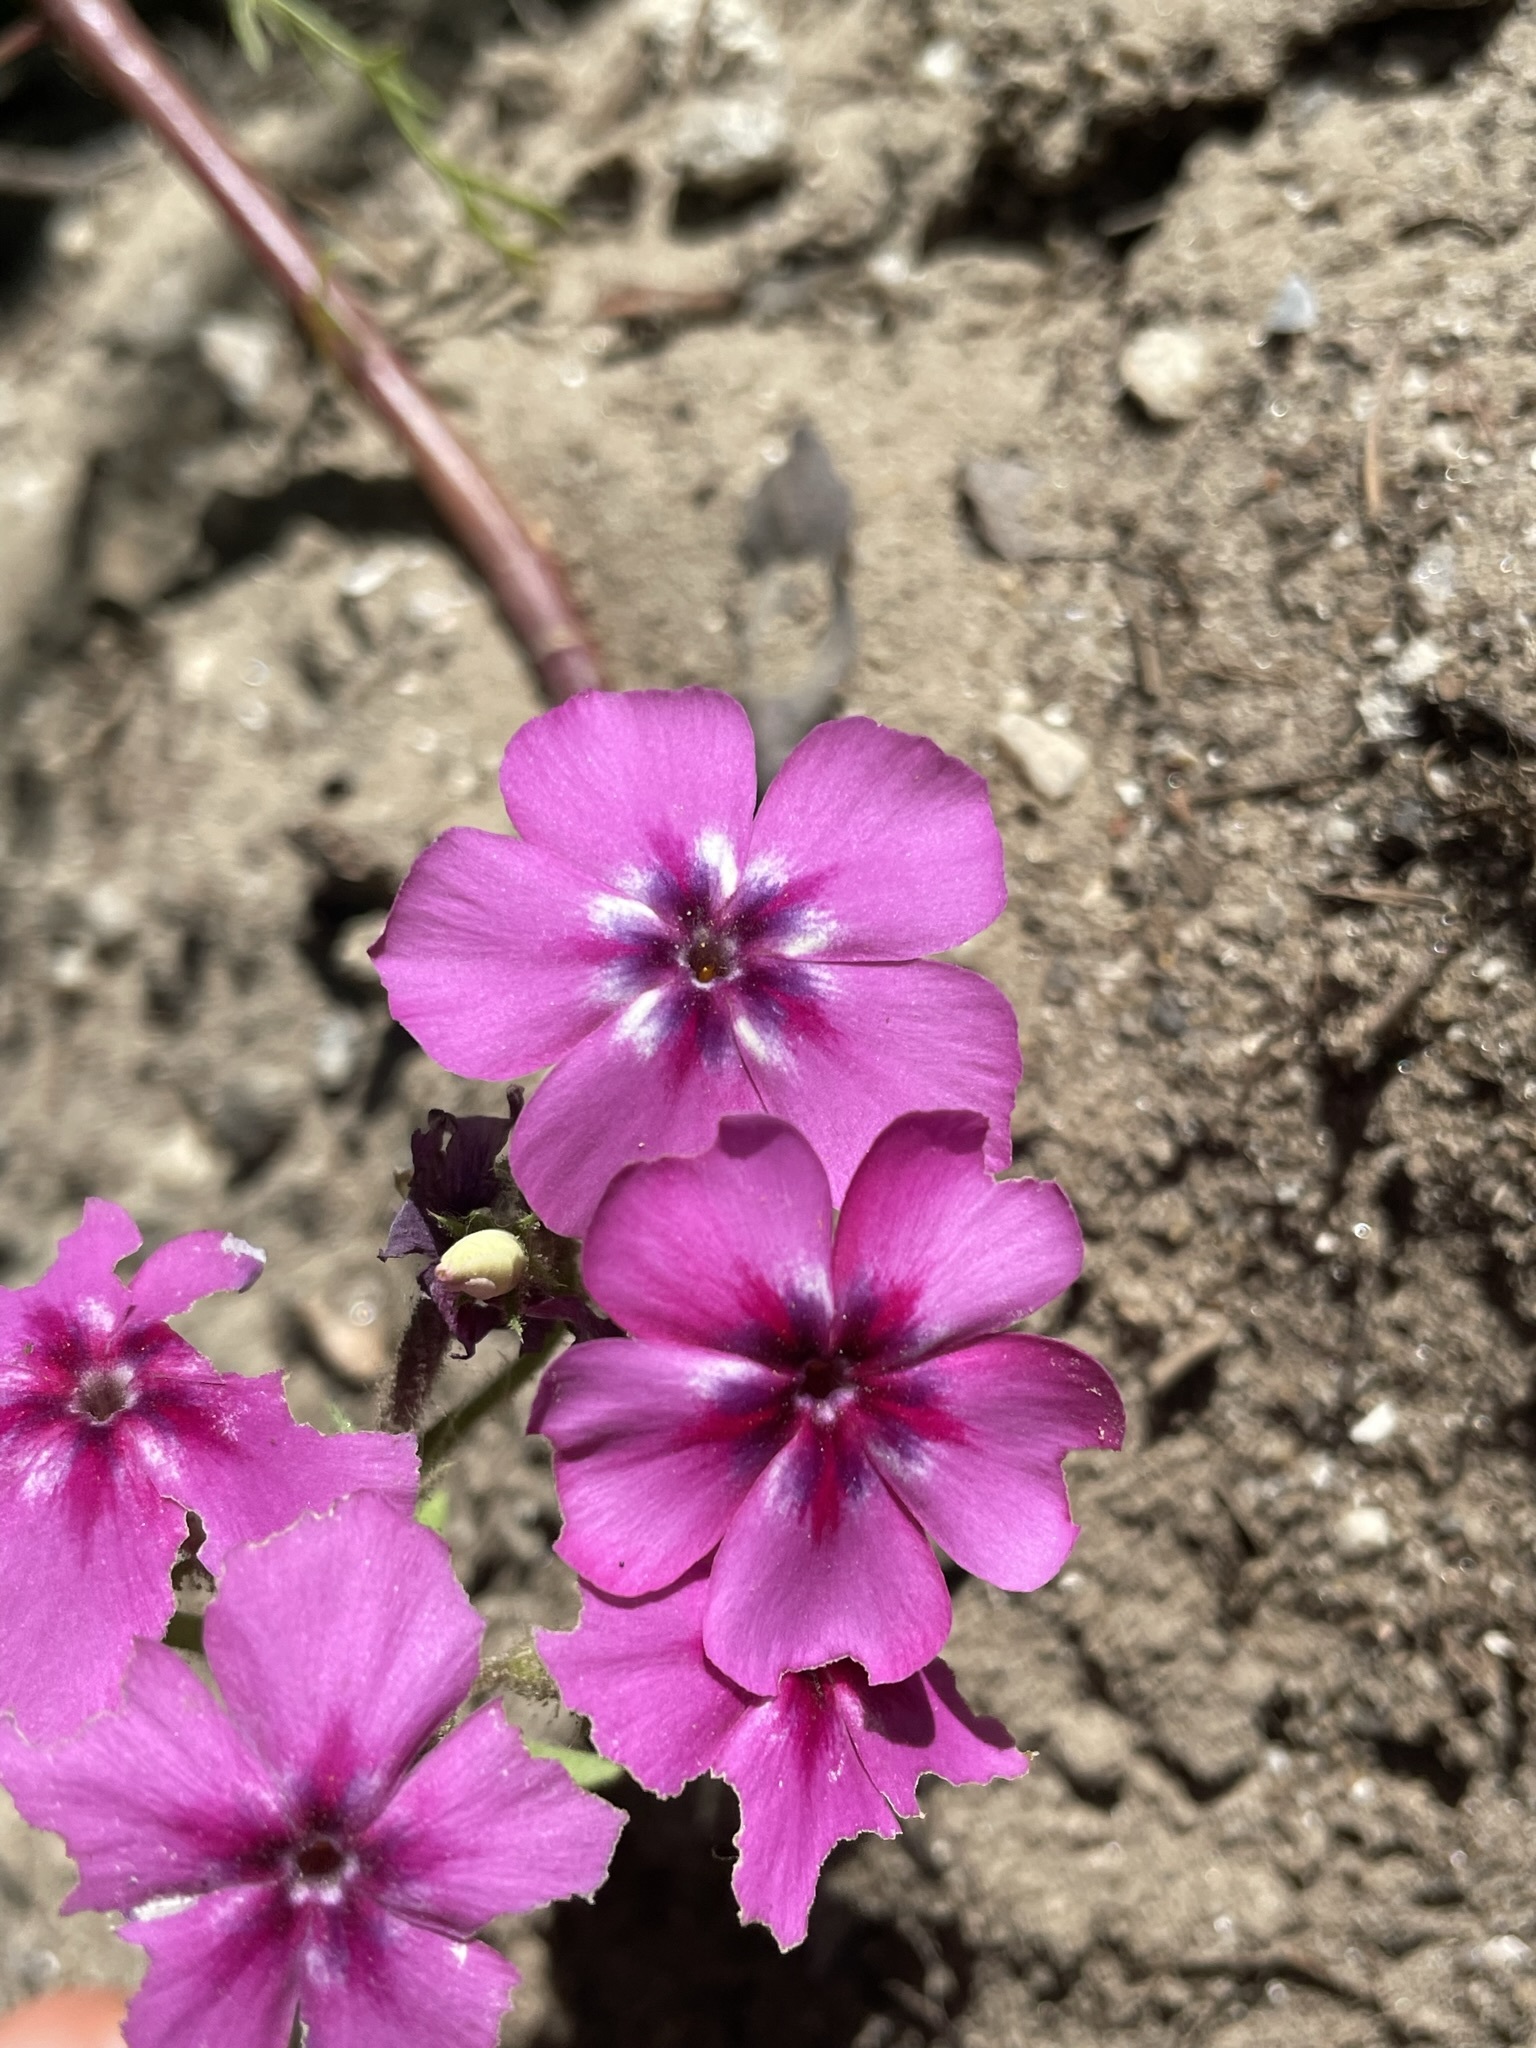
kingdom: Plantae
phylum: Tracheophyta
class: Magnoliopsida
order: Ericales
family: Polemoniaceae
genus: Phlox
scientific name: Phlox drummondii
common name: Drummond's phlox
